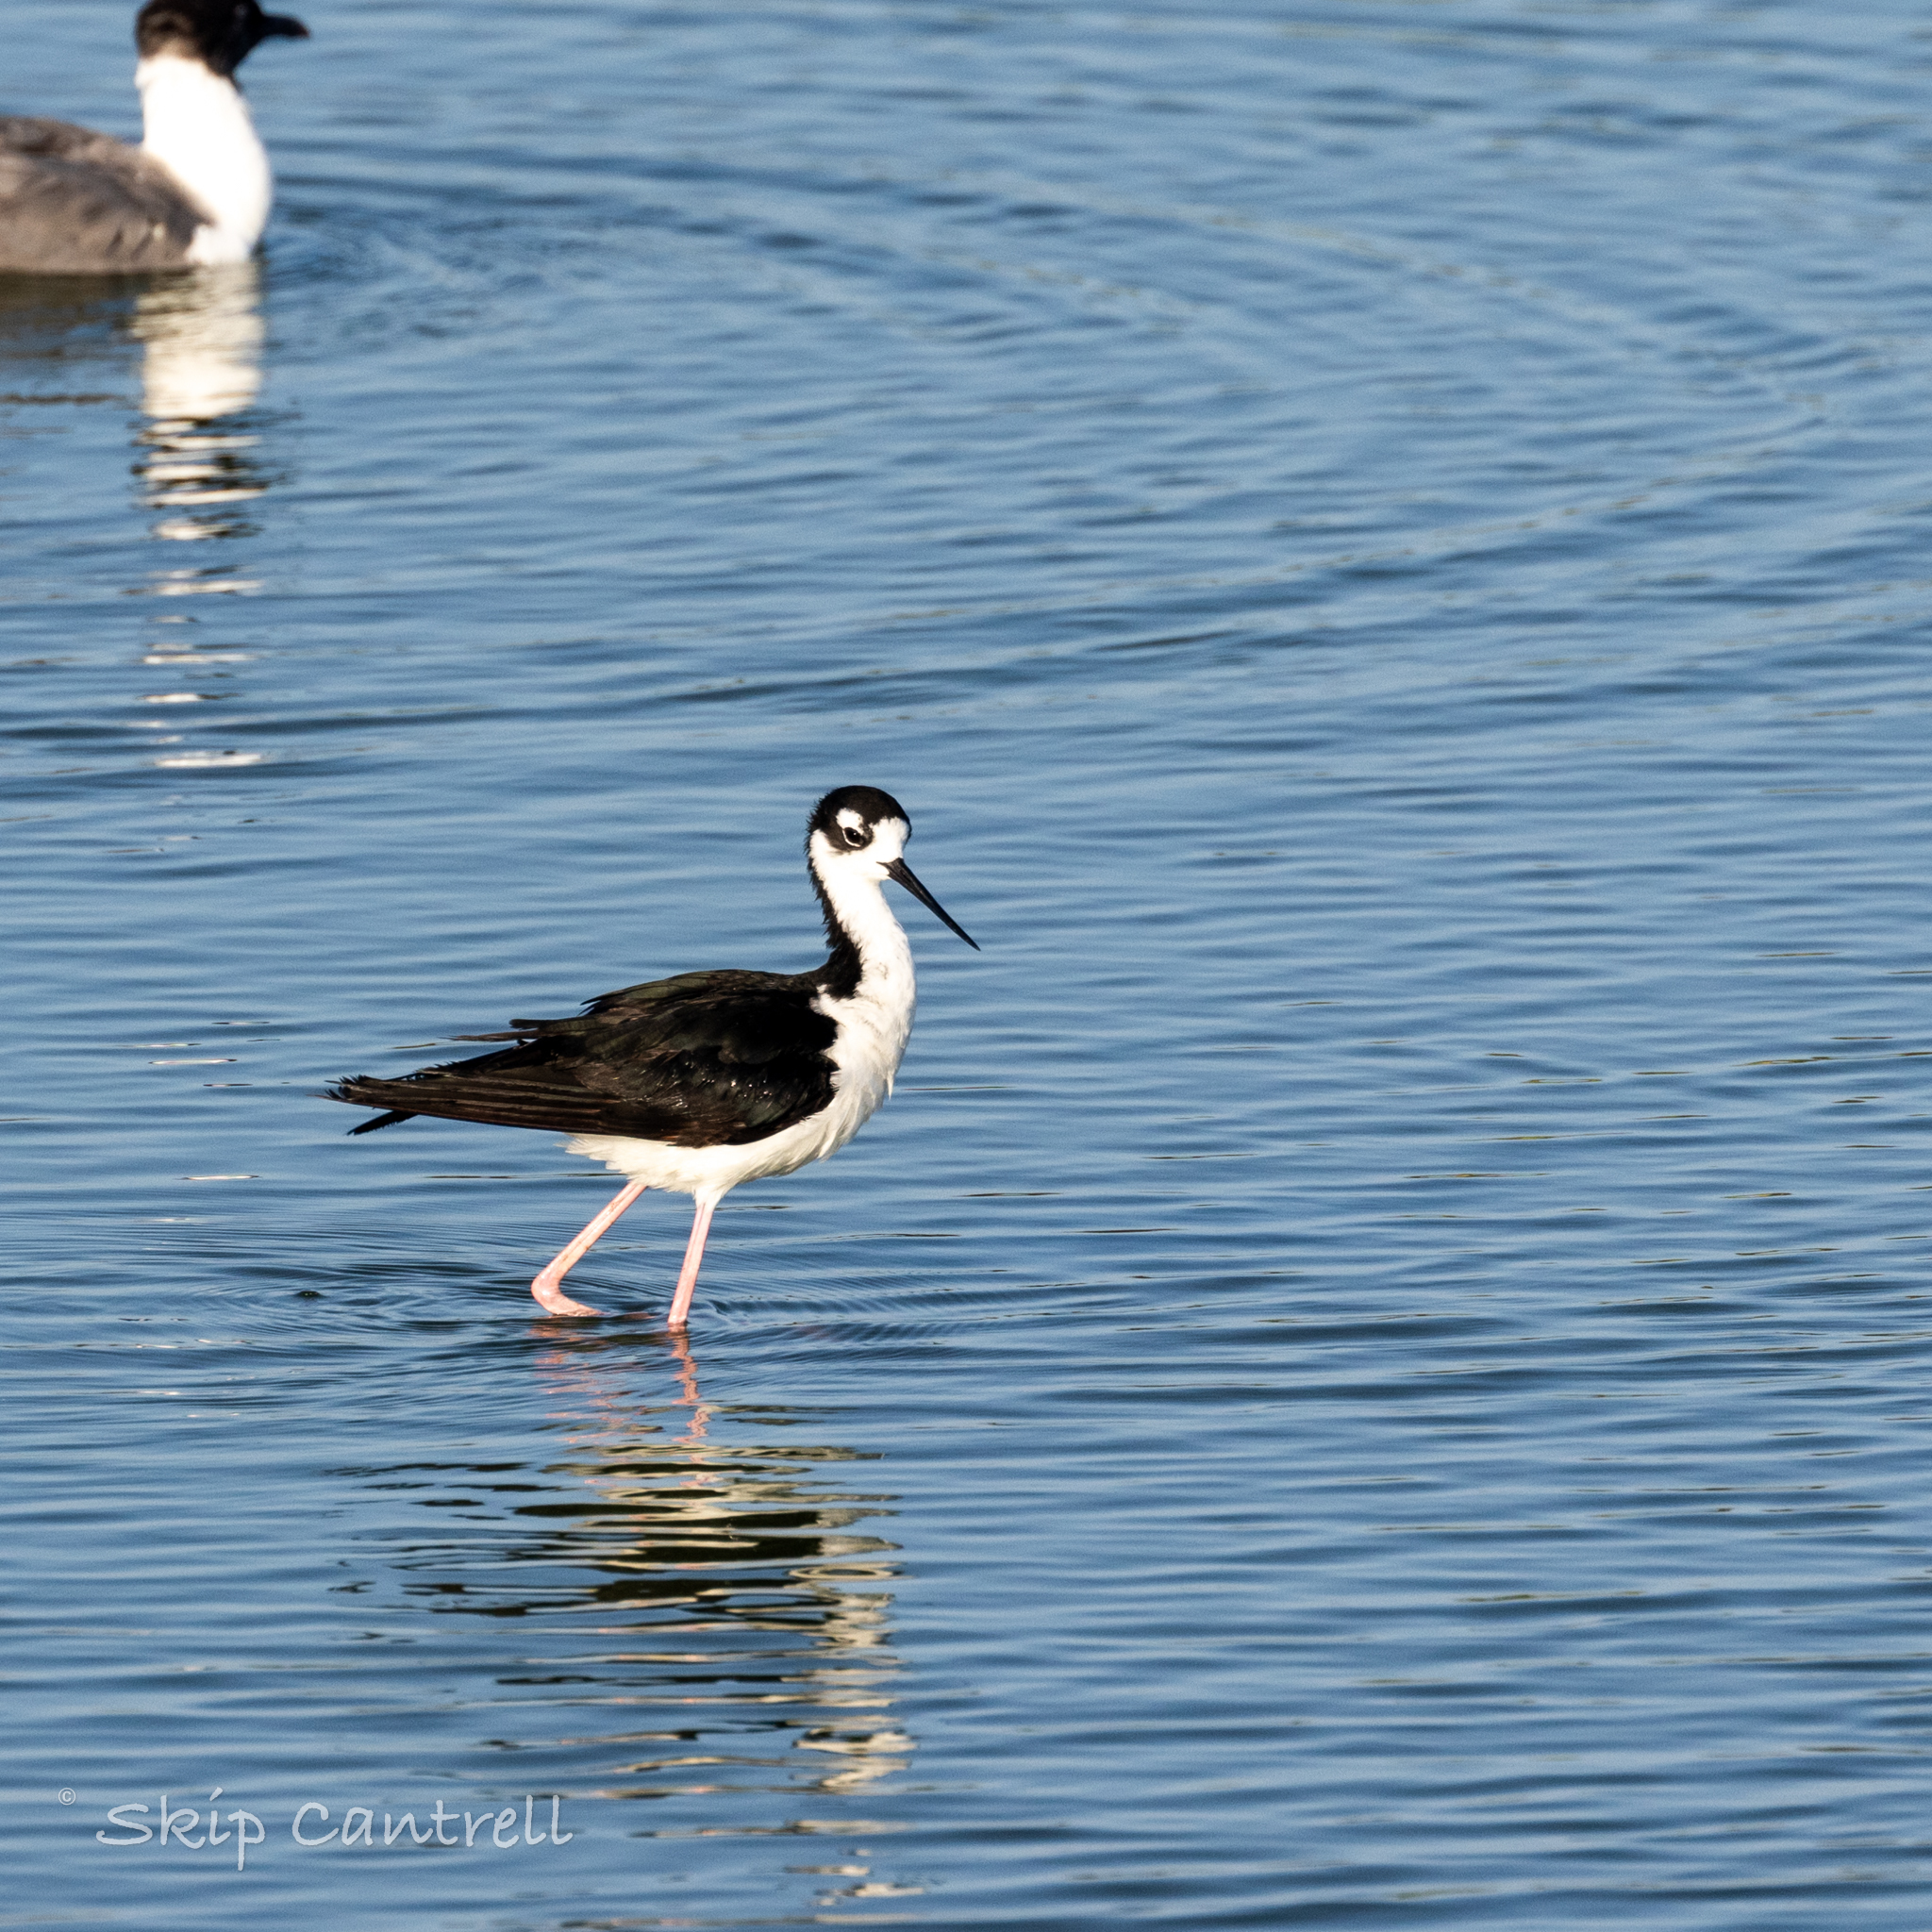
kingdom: Animalia
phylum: Chordata
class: Aves
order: Charadriiformes
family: Recurvirostridae
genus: Himantopus
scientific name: Himantopus mexicanus
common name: Black-necked stilt
